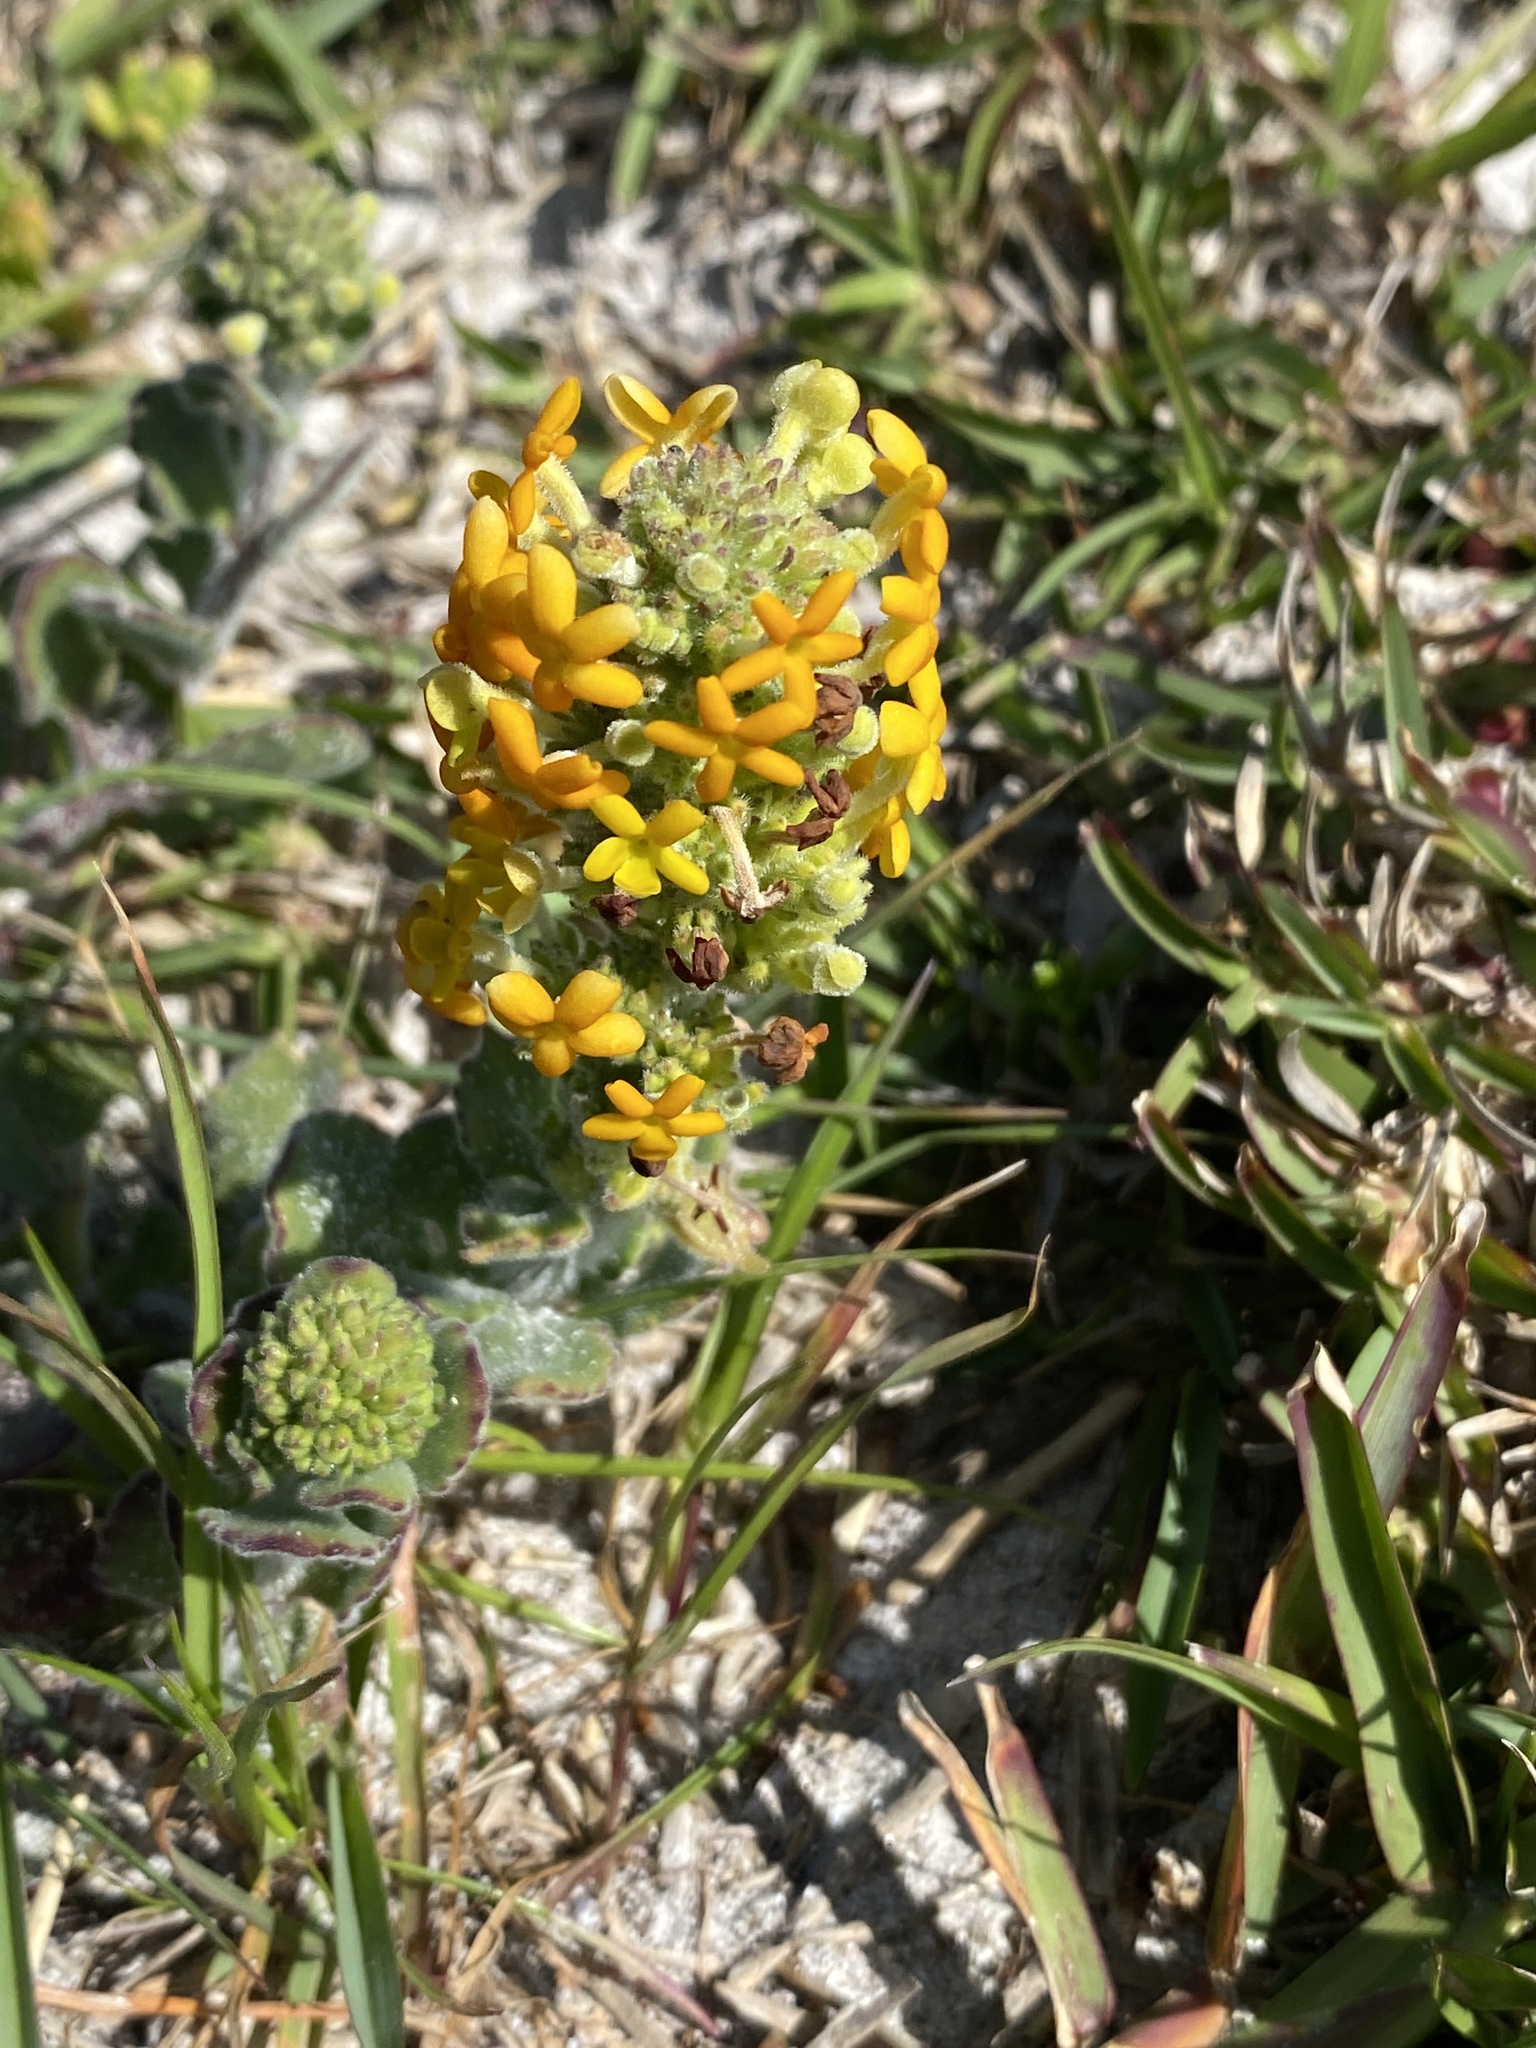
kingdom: Plantae
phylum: Tracheophyta
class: Magnoliopsida
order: Lamiales
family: Scrophulariaceae
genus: Manulea
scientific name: Manulea tomentosa
